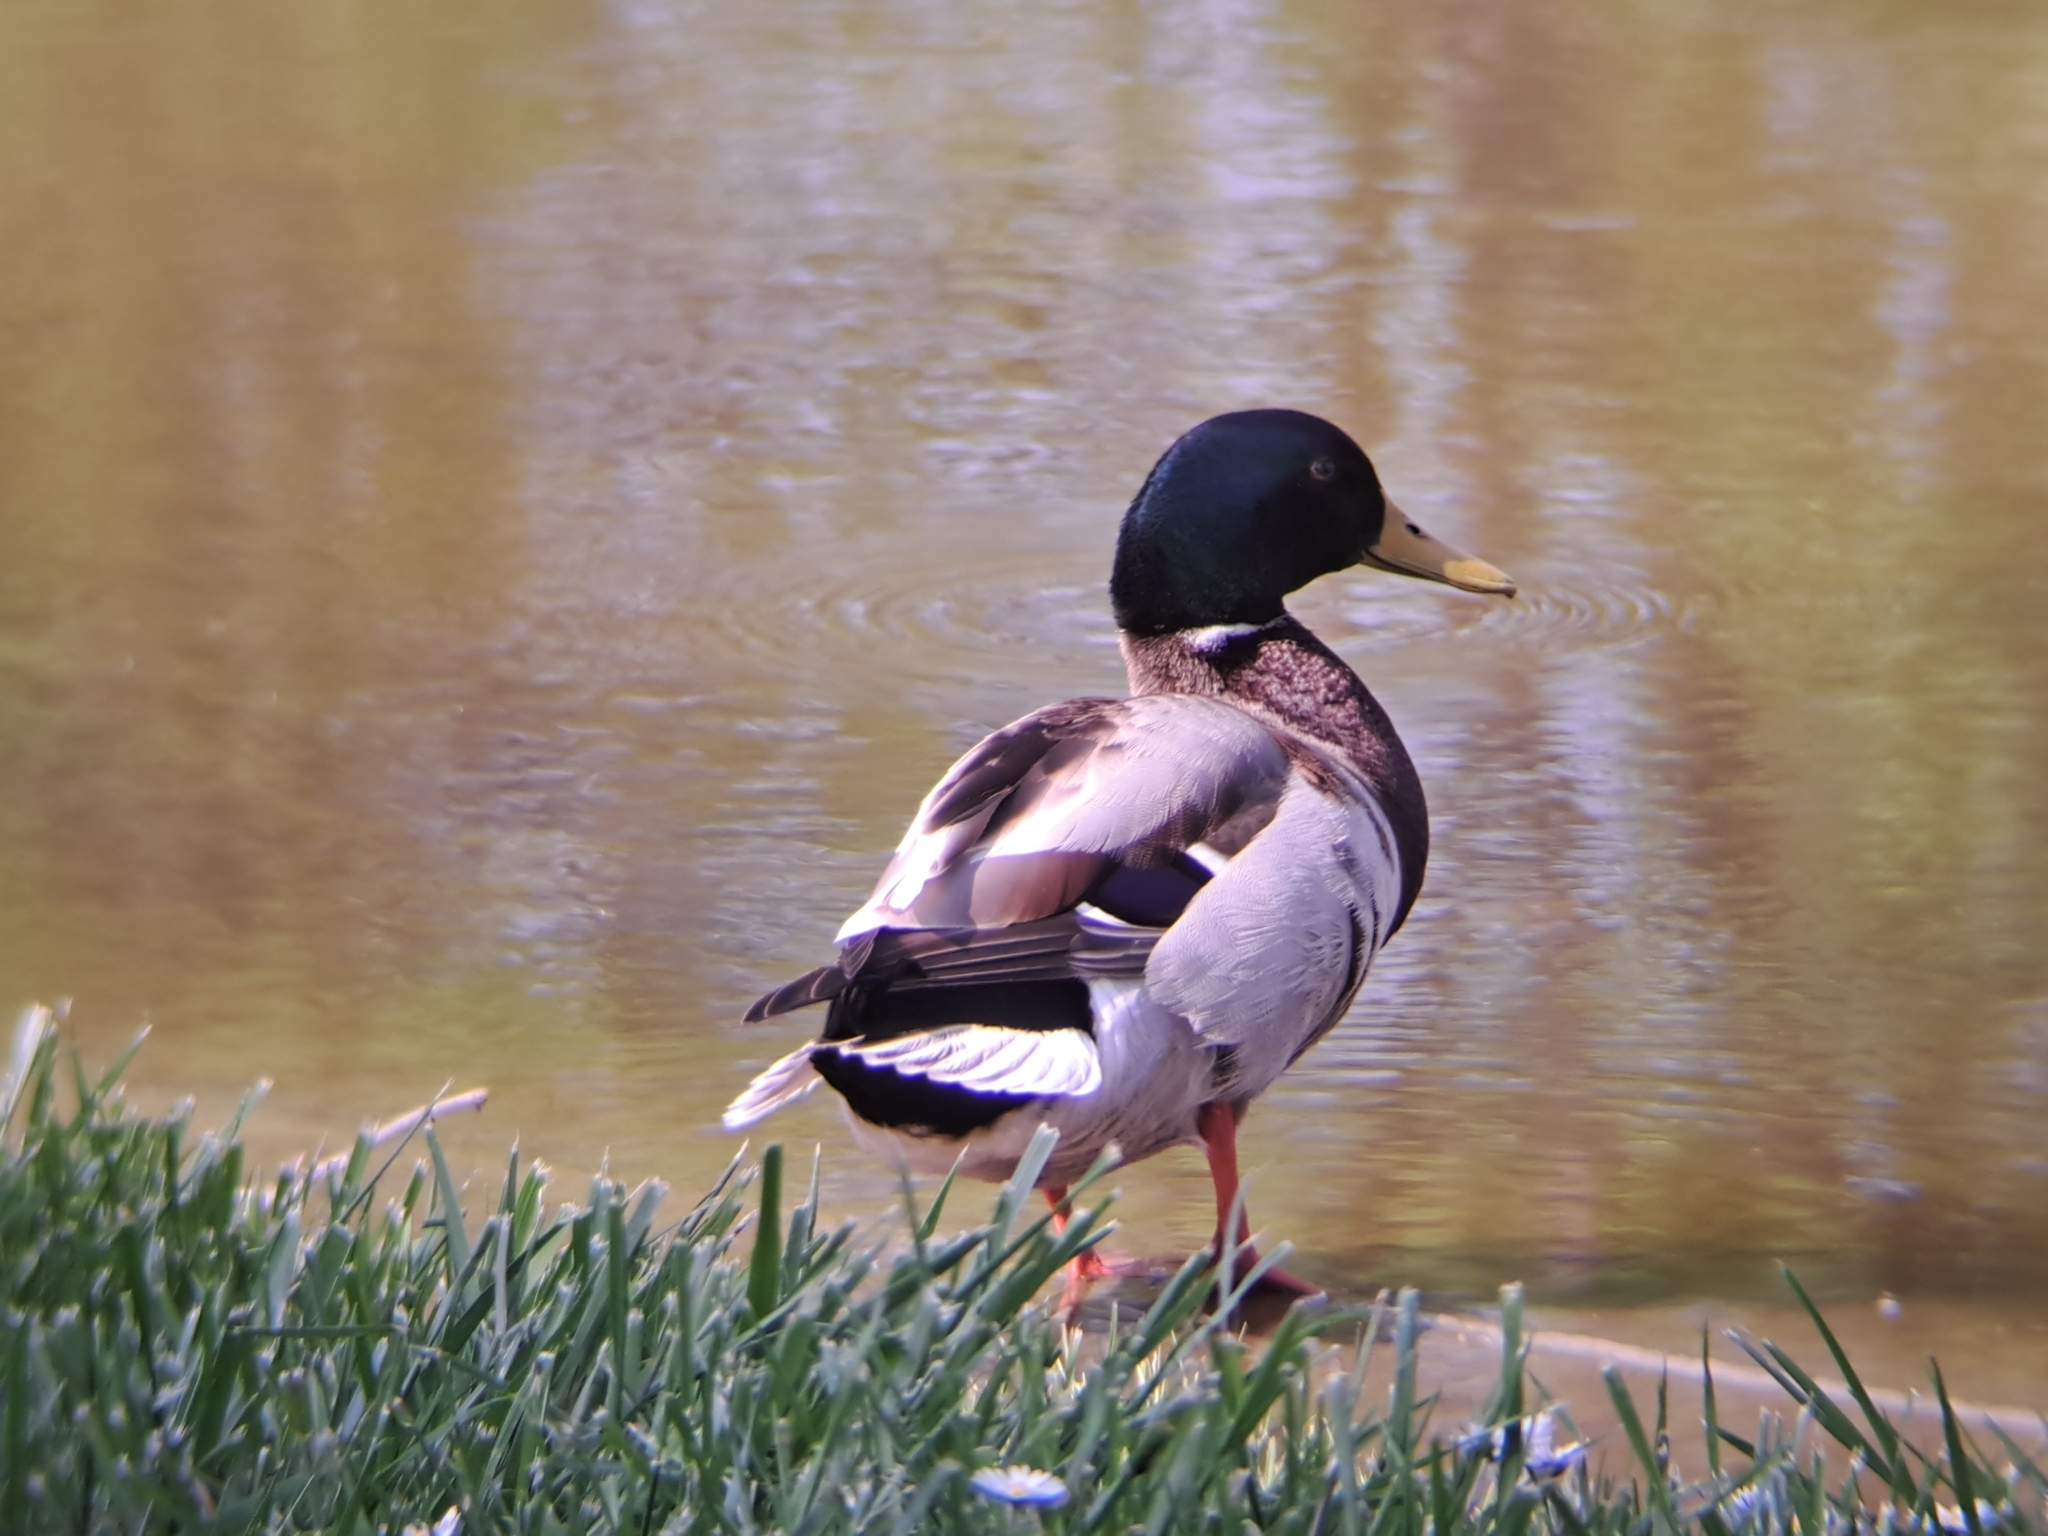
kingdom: Animalia
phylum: Chordata
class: Aves
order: Anseriformes
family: Anatidae
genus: Anas
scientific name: Anas platyrhynchos
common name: Mallard
